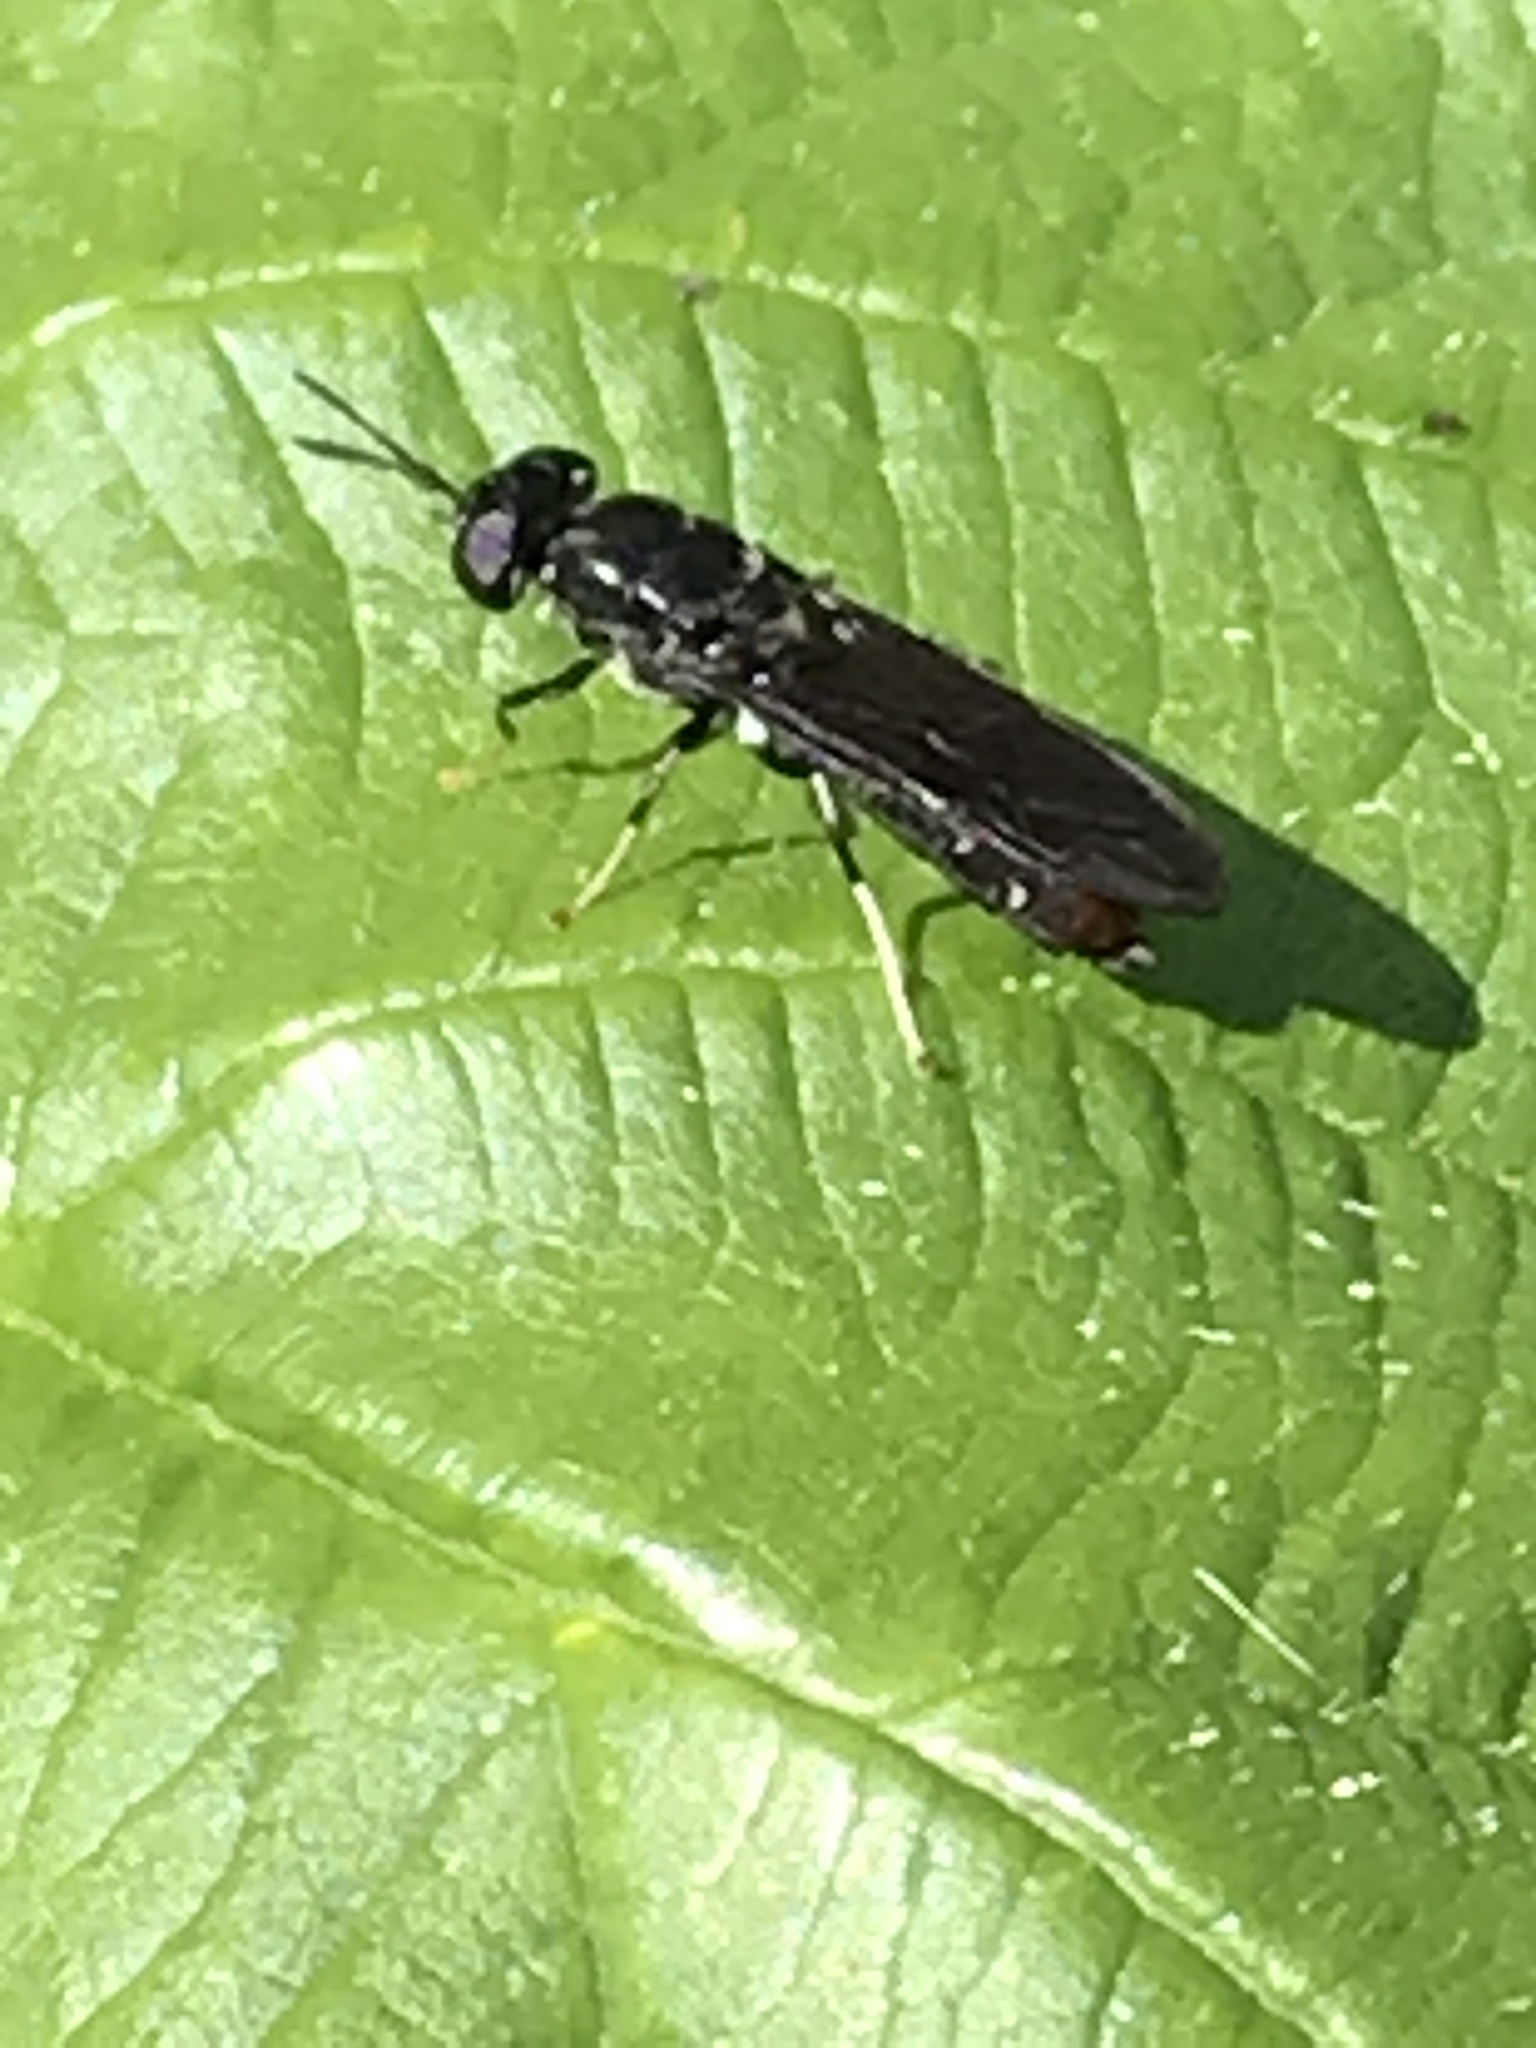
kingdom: Animalia
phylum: Arthropoda
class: Insecta
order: Diptera
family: Stratiomyidae
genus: Hermetia
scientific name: Hermetia illucens
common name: Black soldier fly
